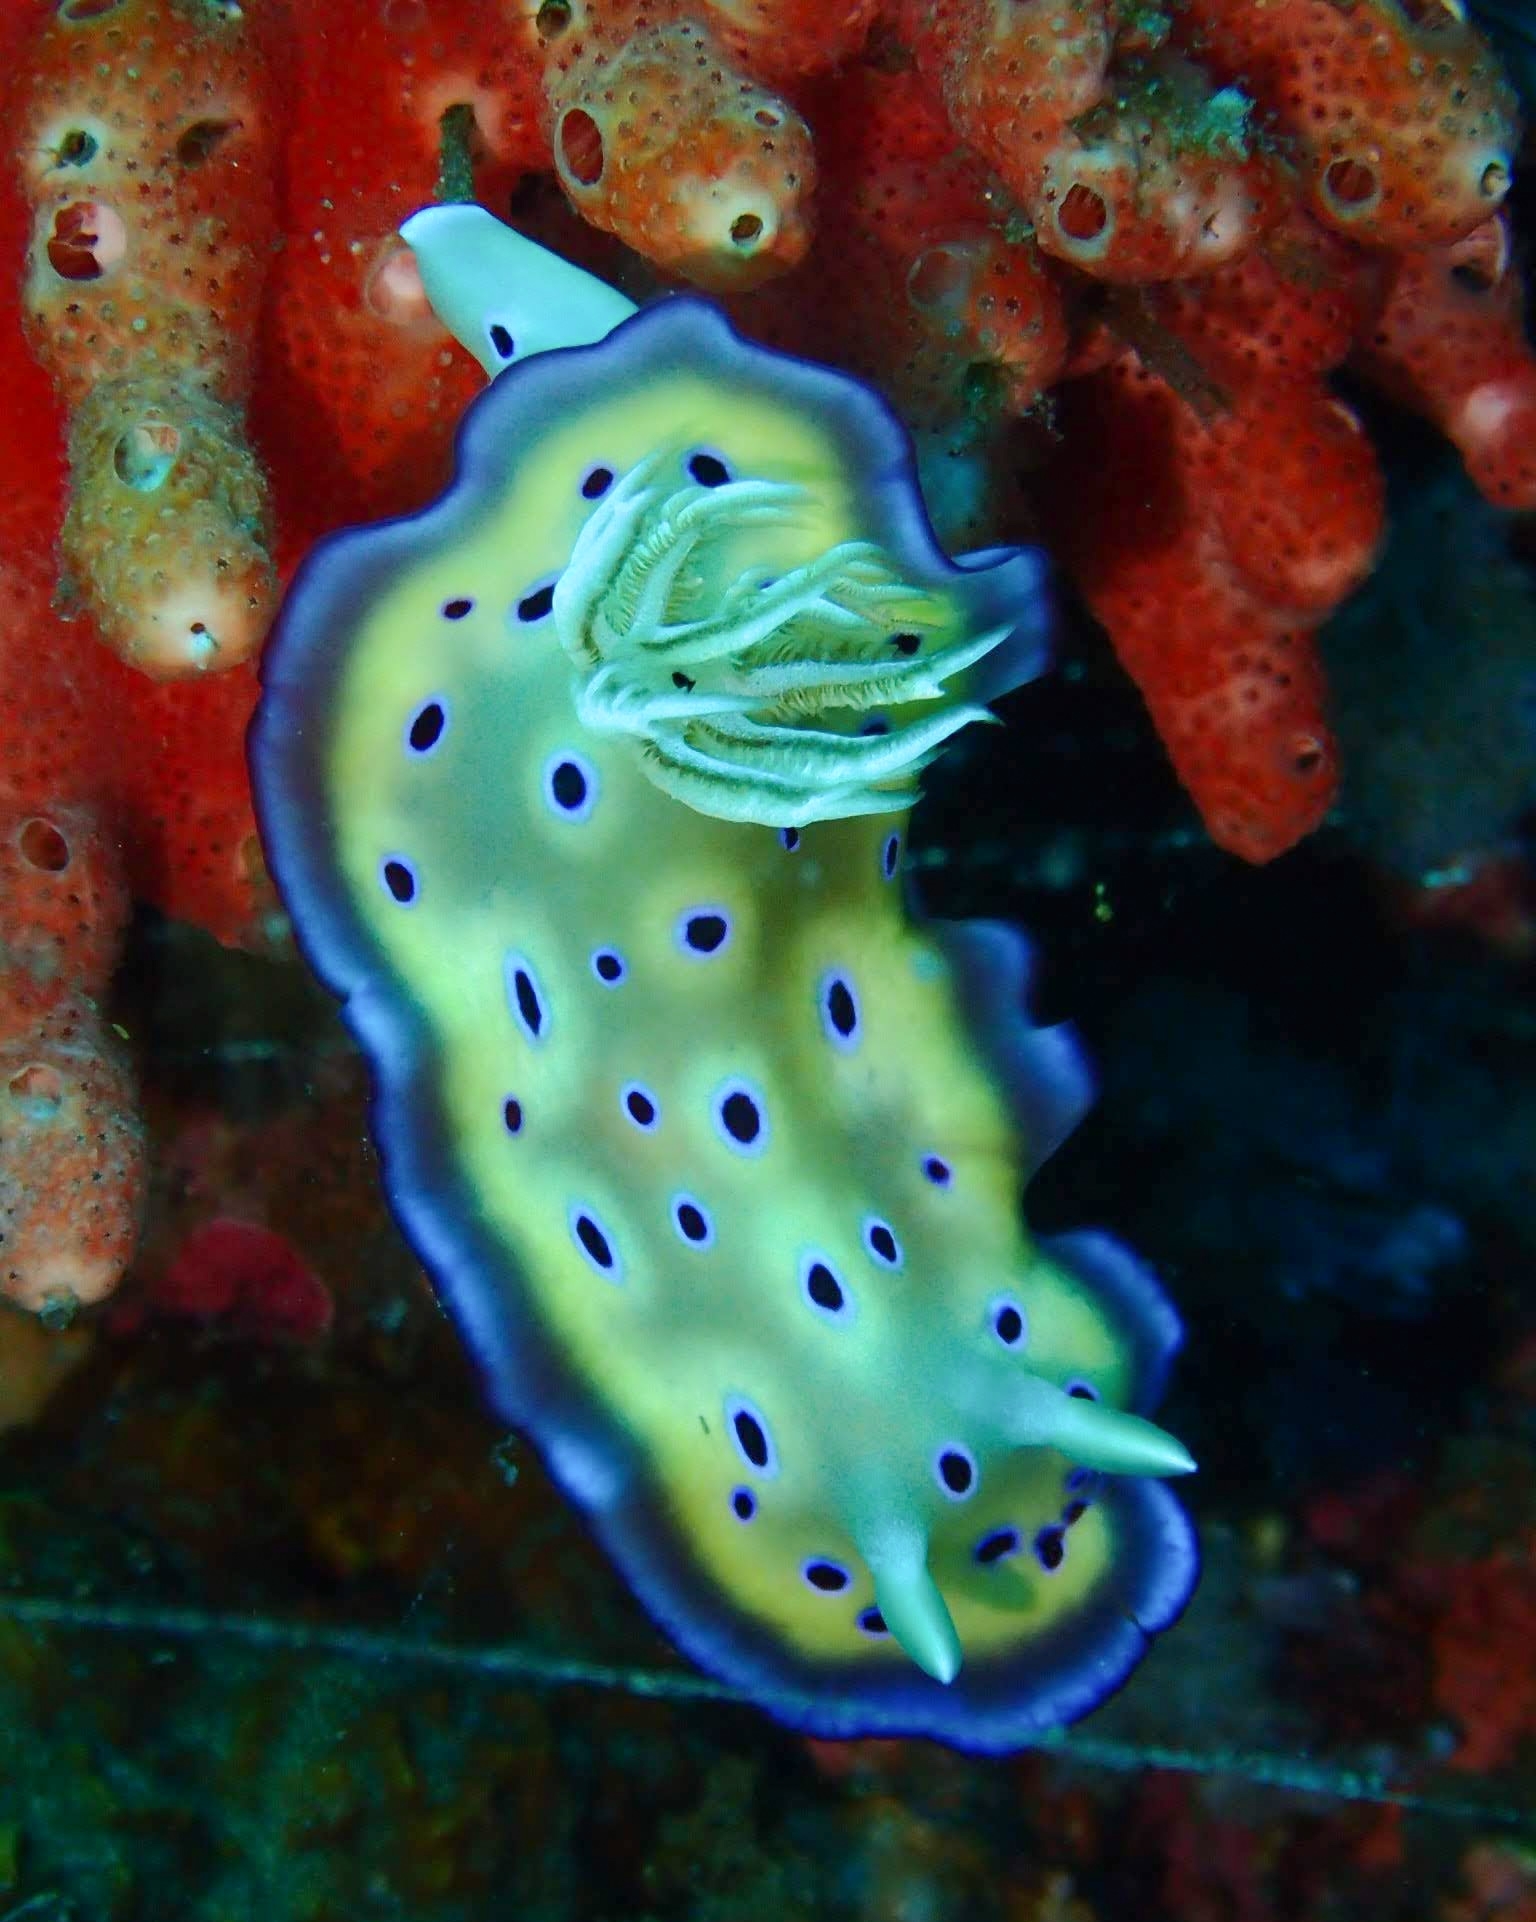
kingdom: Animalia
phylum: Mollusca
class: Gastropoda
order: Nudibranchia
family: Chromodorididae
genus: Goniobranchus
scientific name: Goniobranchus kuniei
